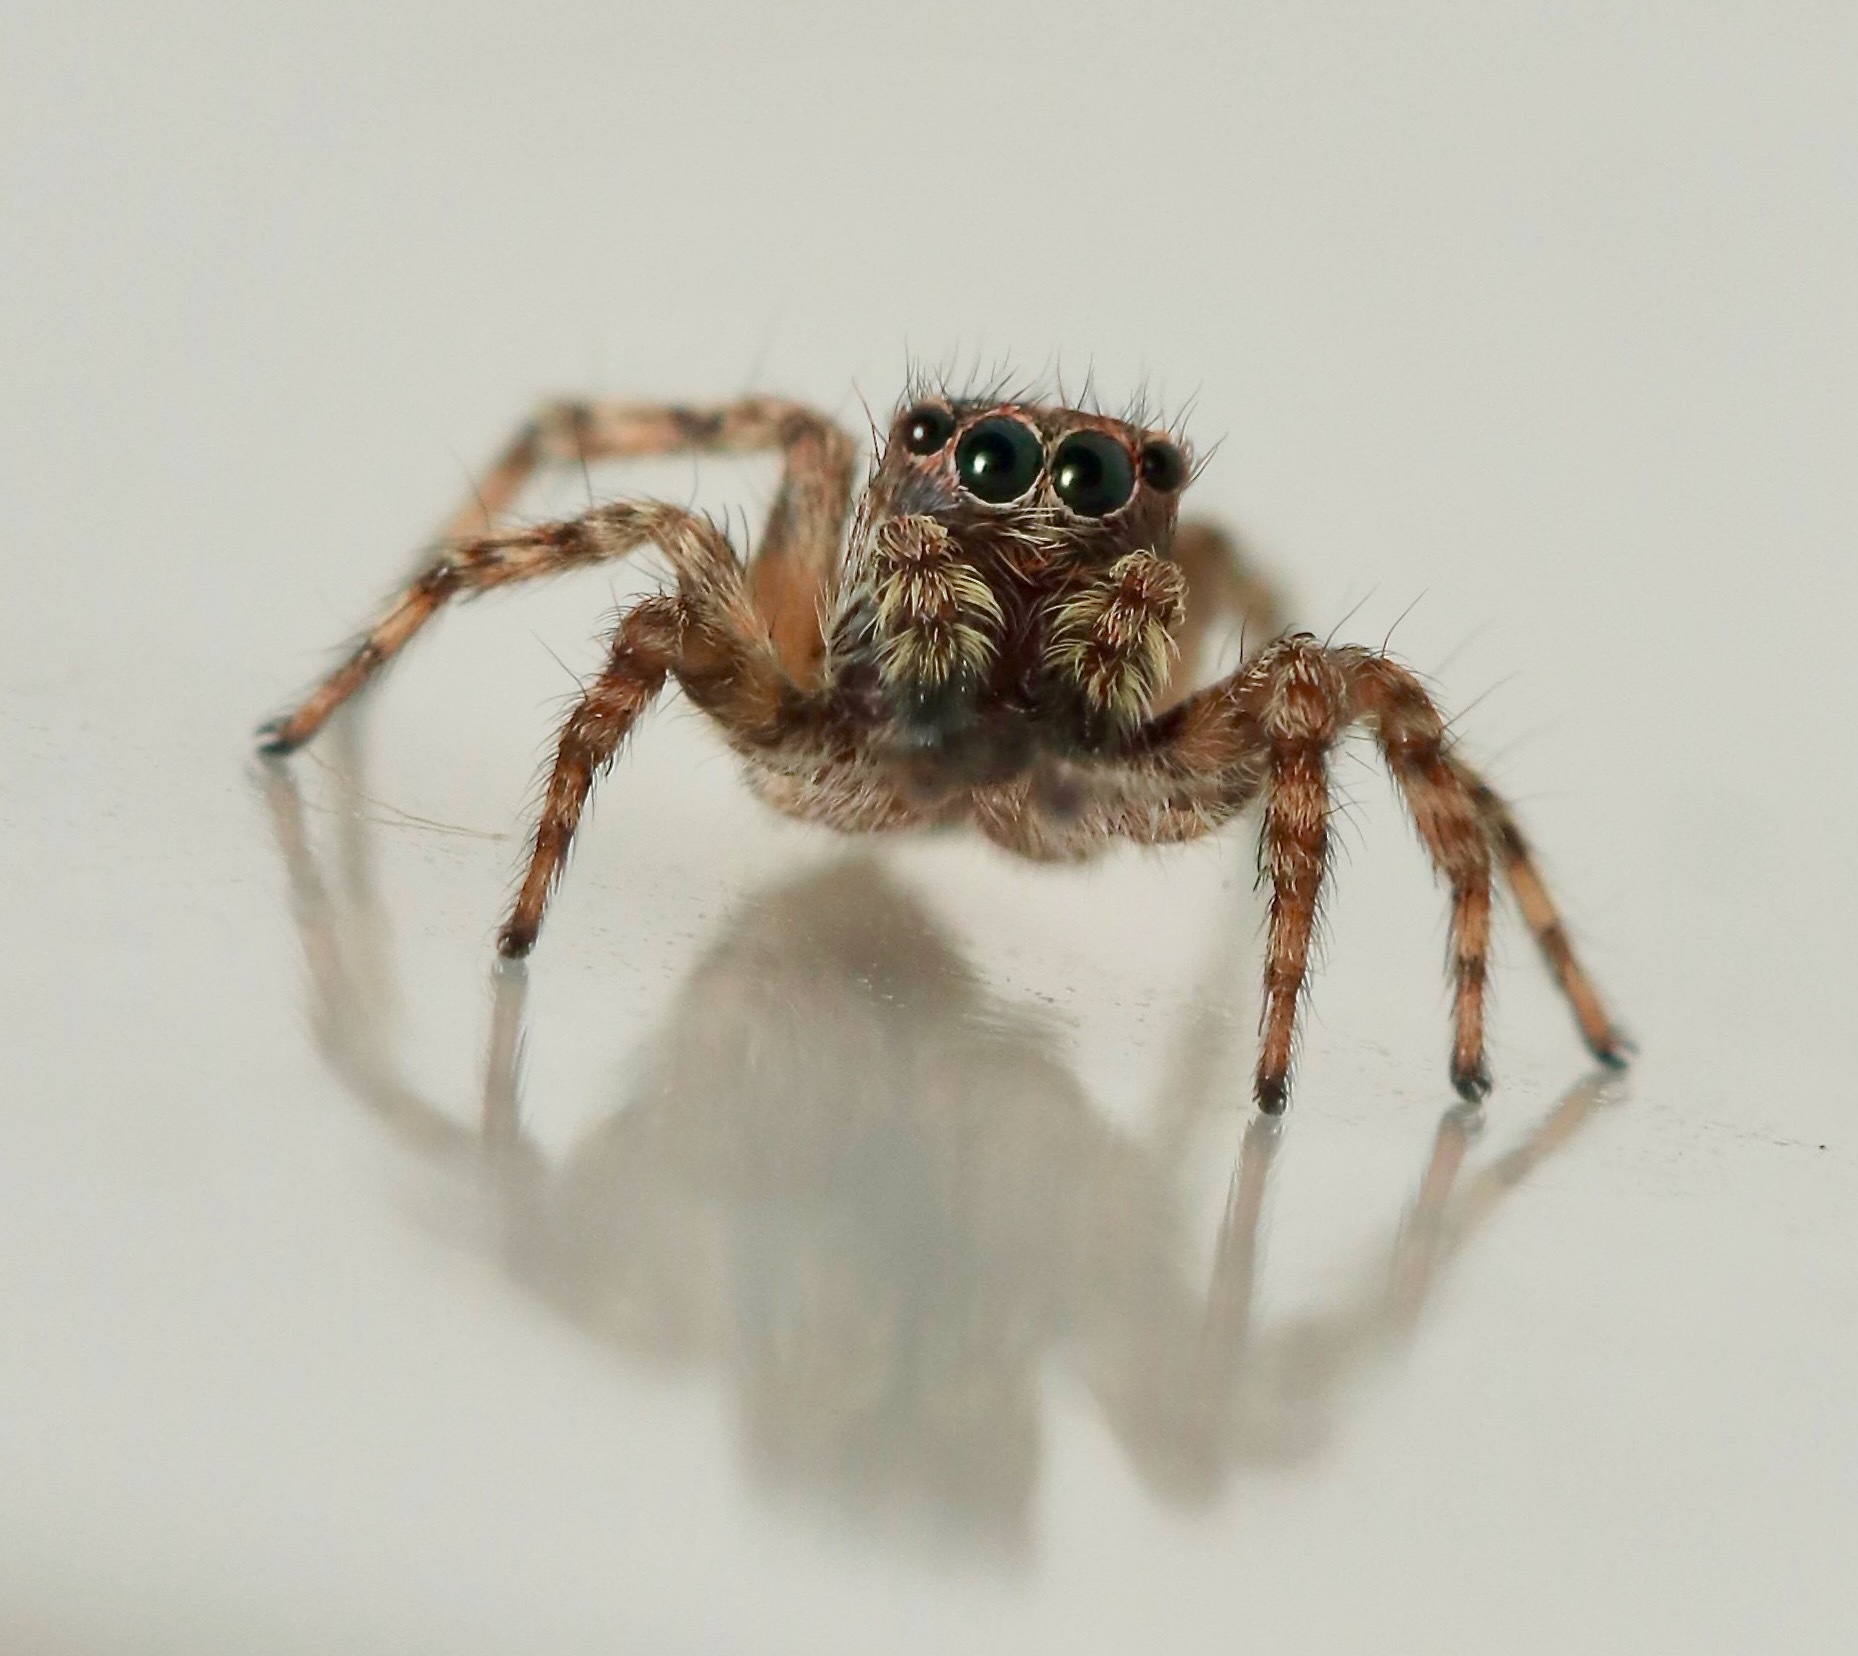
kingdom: Animalia
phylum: Arthropoda
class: Arachnida
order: Araneae
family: Salticidae
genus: Attulus
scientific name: Attulus fasciger
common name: Asiatic wall jumping spider
